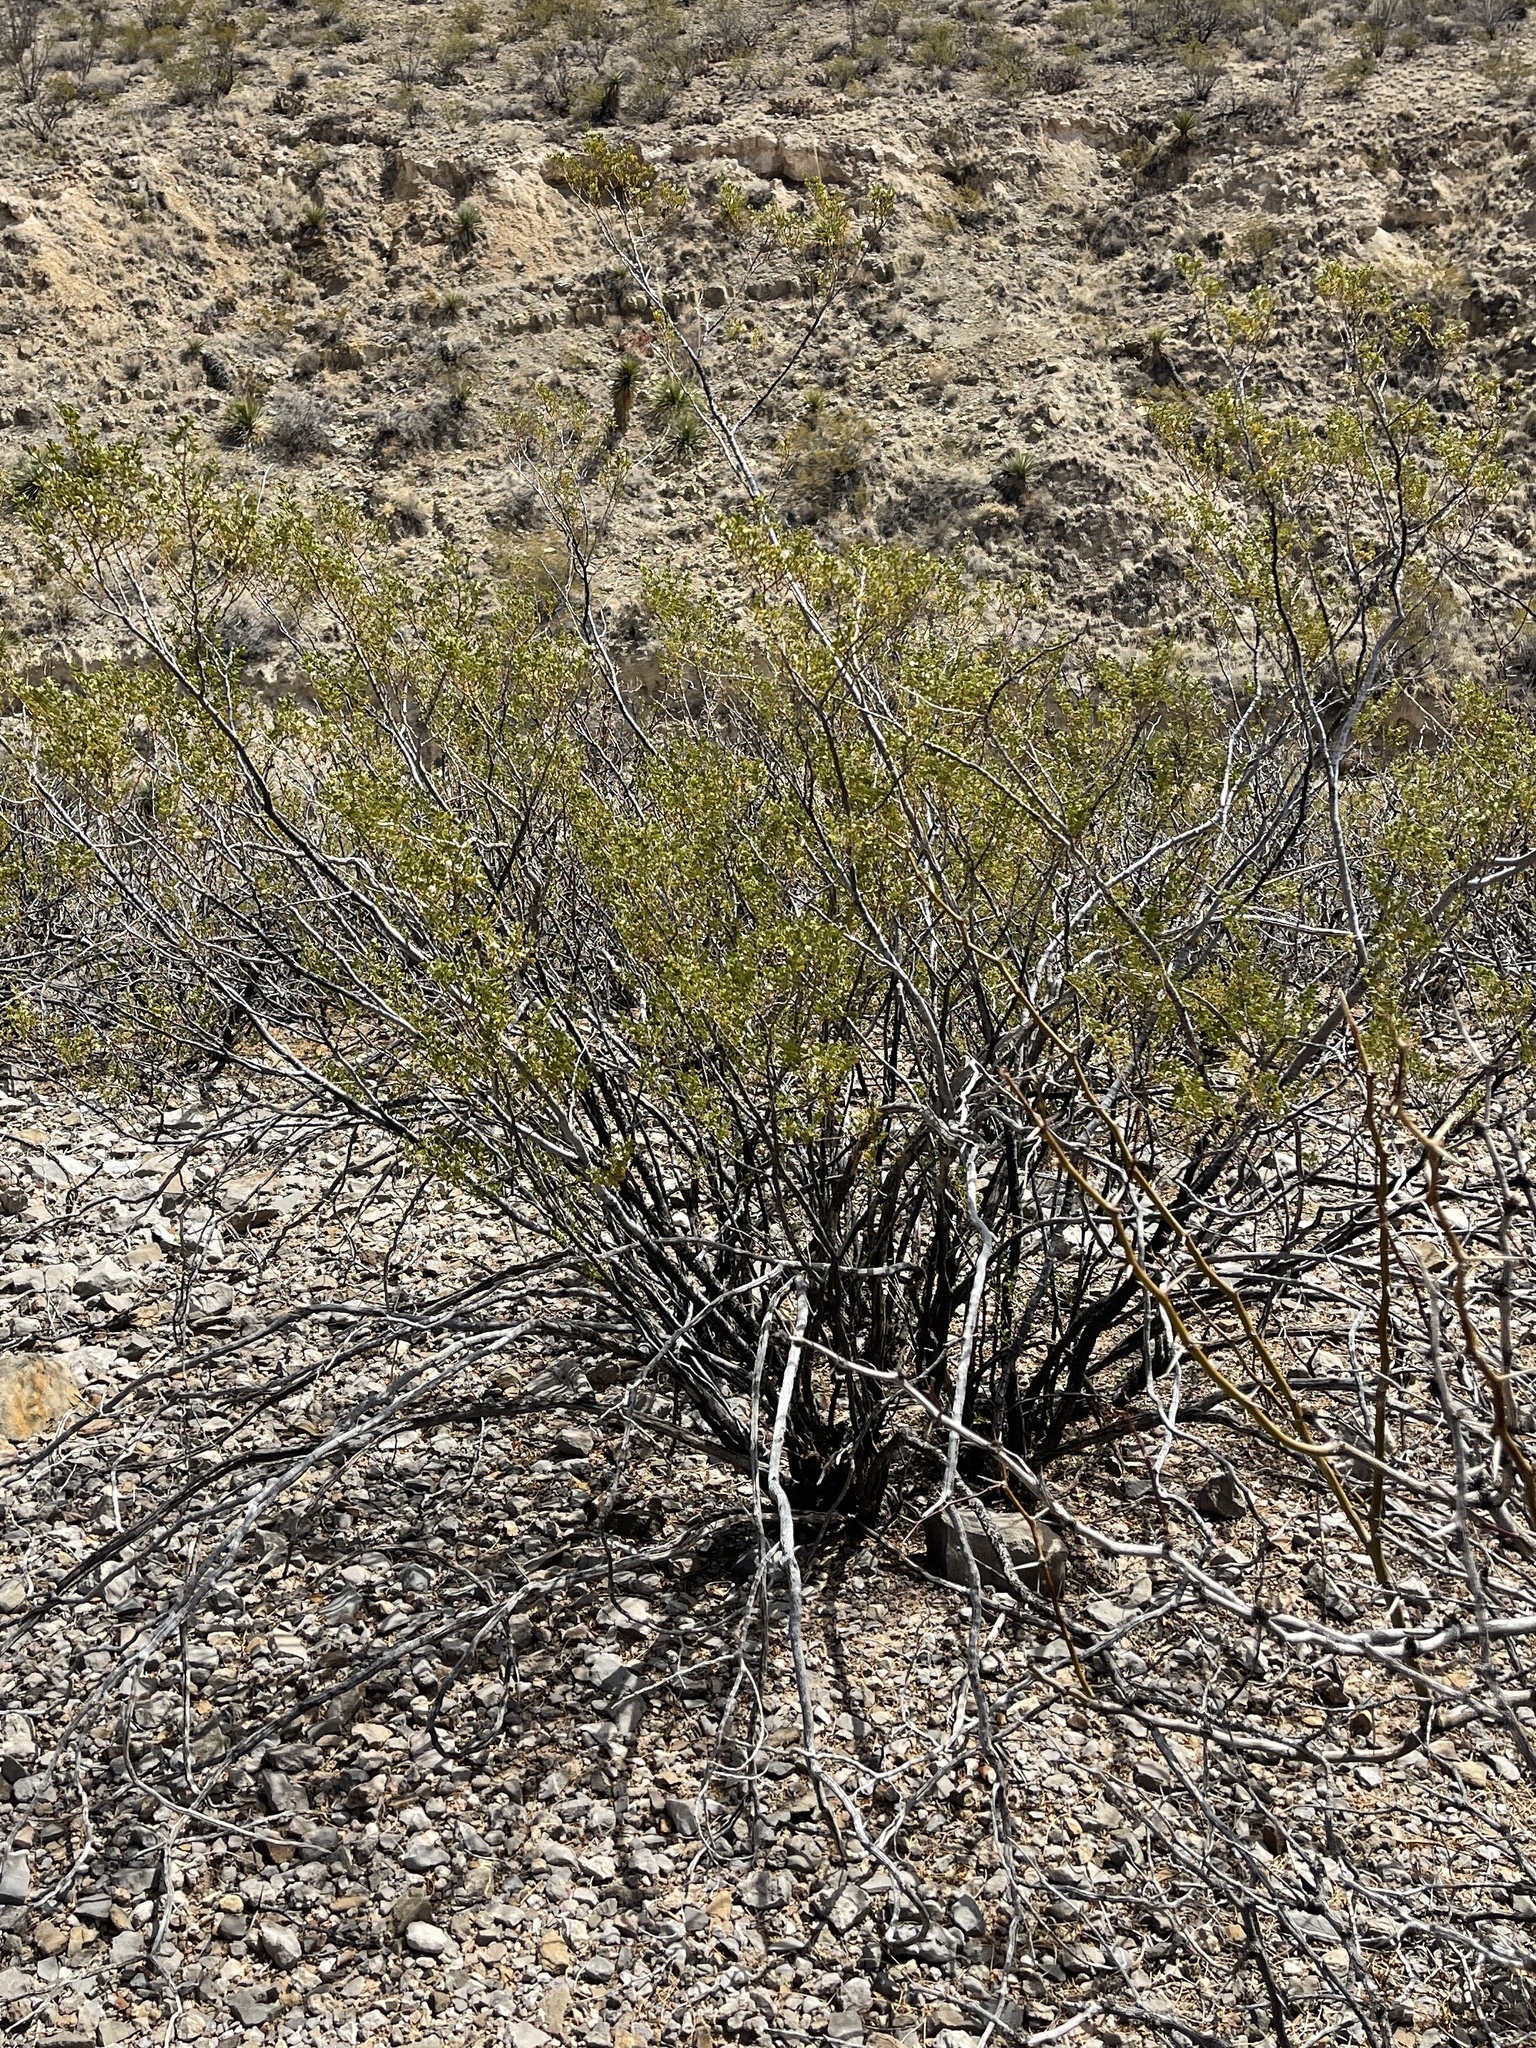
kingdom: Plantae
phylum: Tracheophyta
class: Magnoliopsida
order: Zygophyllales
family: Zygophyllaceae
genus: Larrea
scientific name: Larrea tridentata
